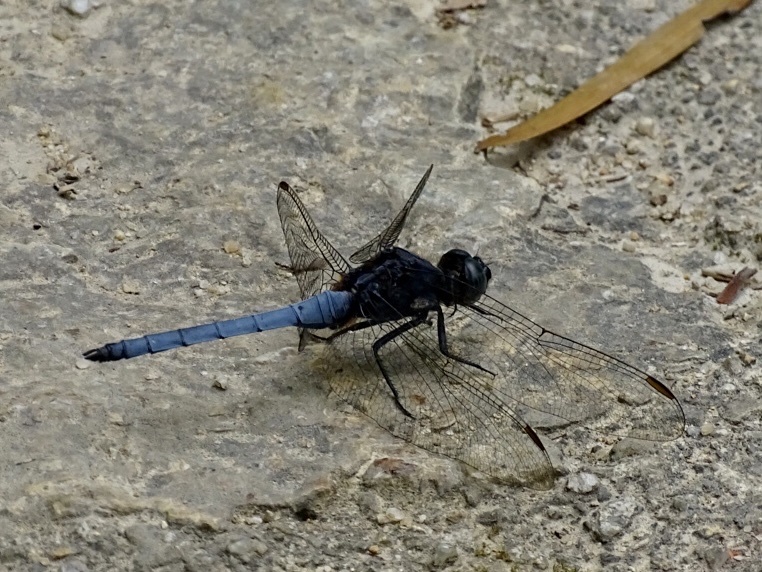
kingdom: Animalia
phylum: Arthropoda
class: Insecta
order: Odonata
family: Libellulidae
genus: Orthetrum
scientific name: Orthetrum glaucum
